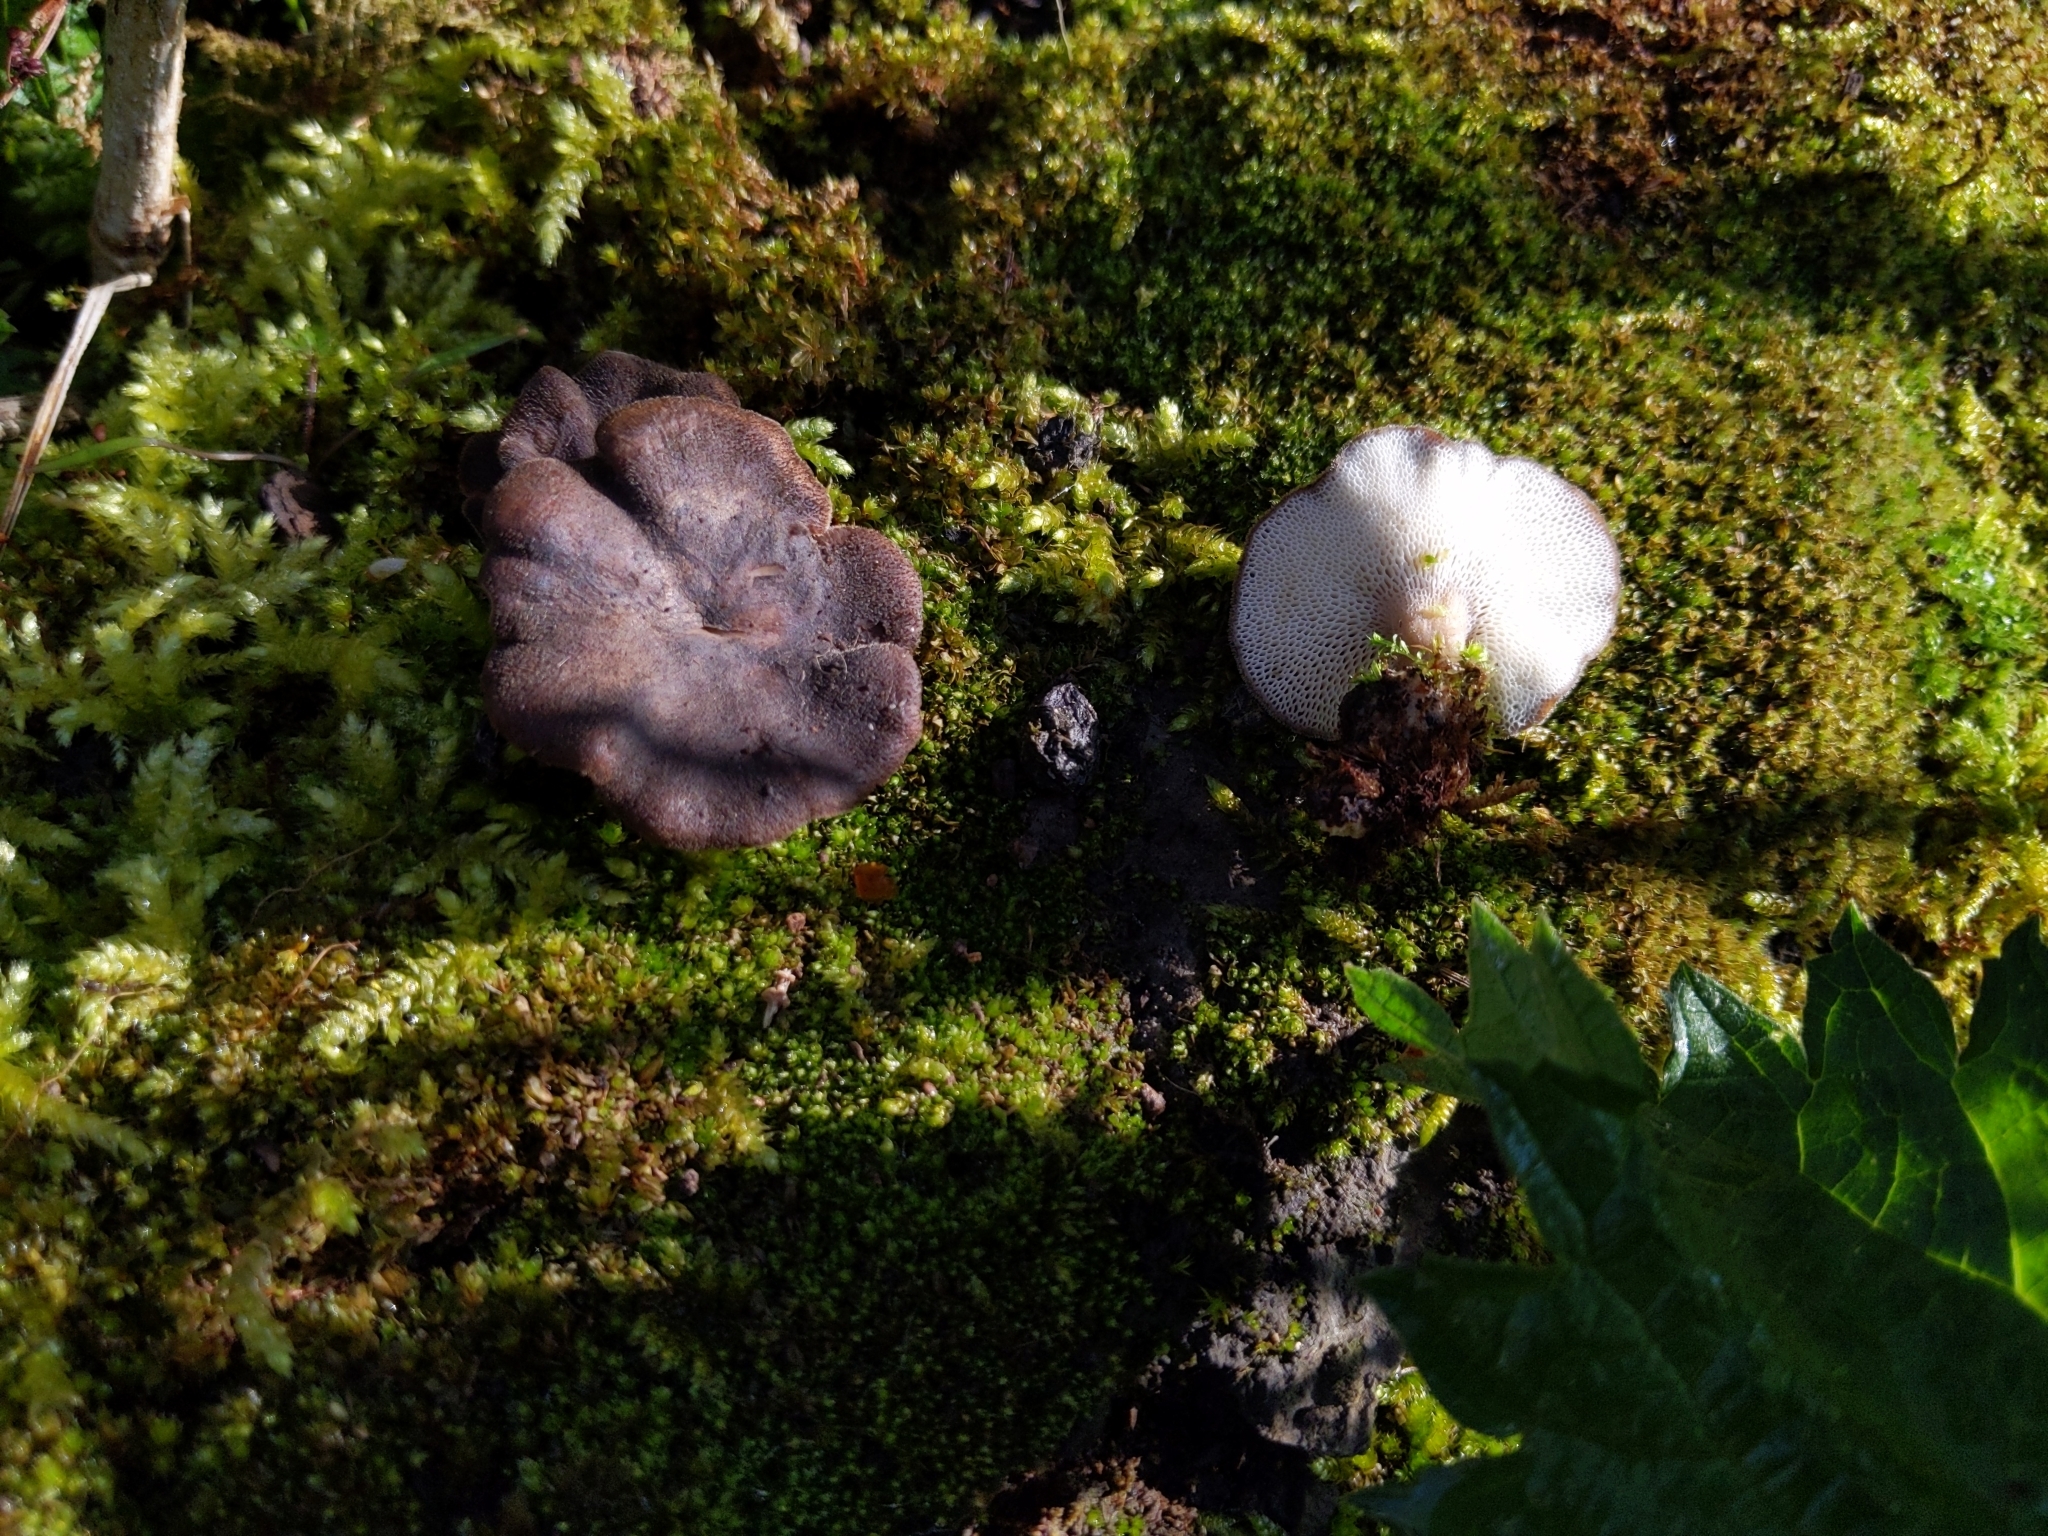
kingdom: Fungi
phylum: Basidiomycota
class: Agaricomycetes
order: Polyporales
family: Polyporaceae
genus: Lentinus
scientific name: Lentinus brumalis
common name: Winter polypore
